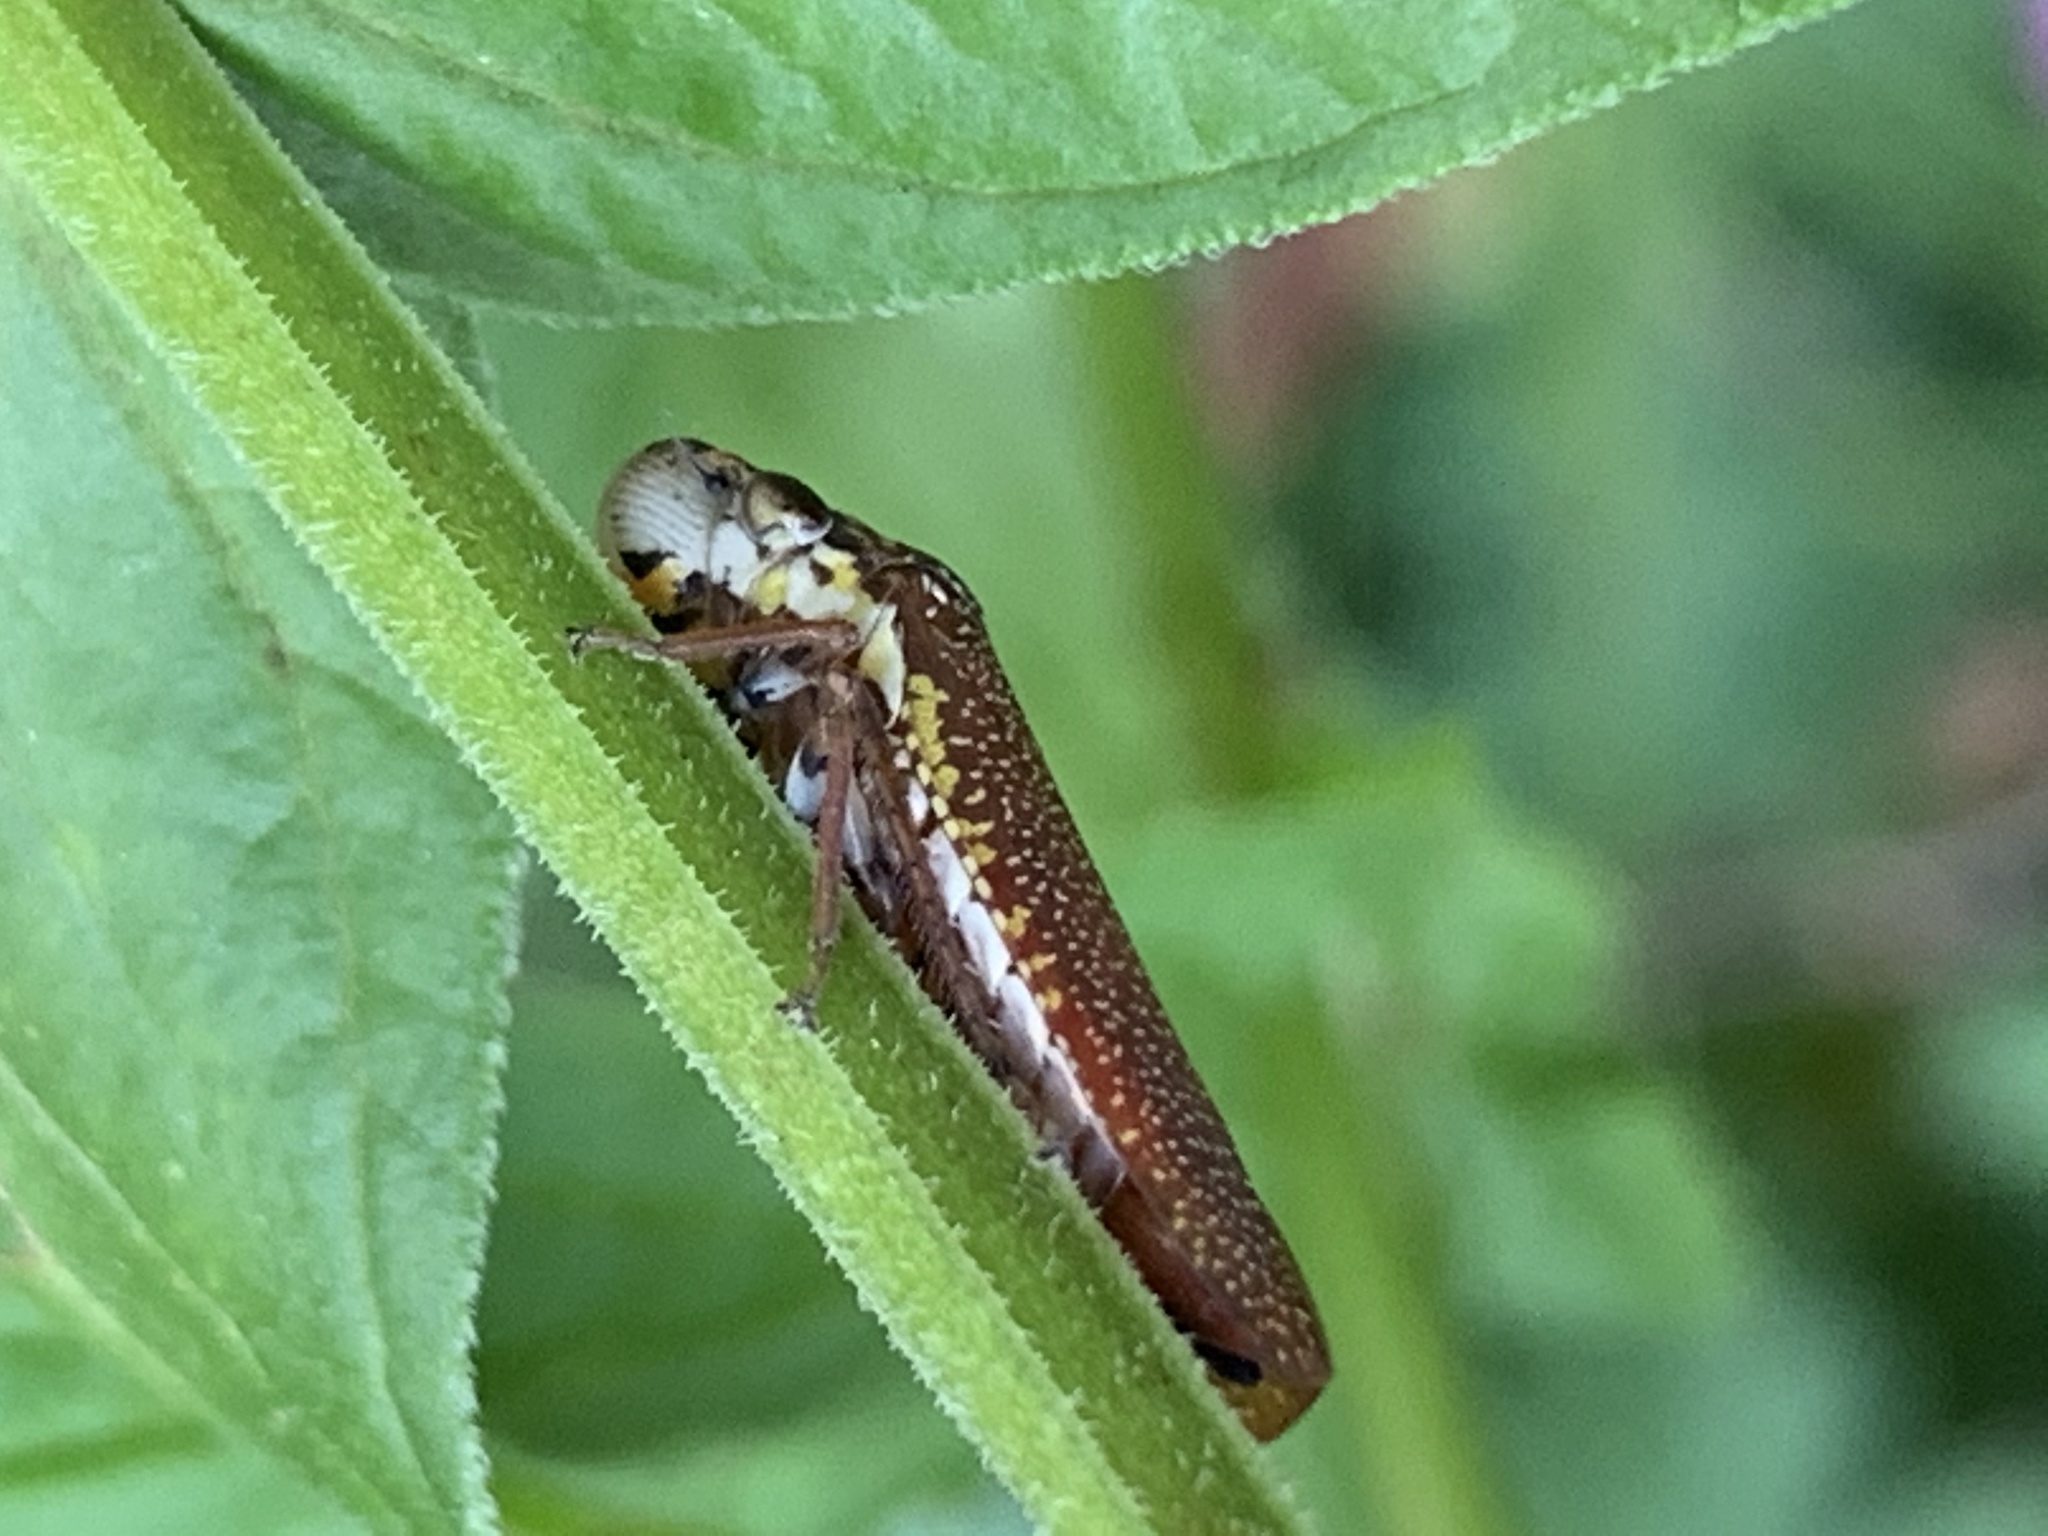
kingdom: Animalia
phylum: Arthropoda
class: Insecta
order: Hemiptera
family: Cicadellidae
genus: Paraulacizes
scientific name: Paraulacizes irrorata
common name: Speckled sharpshooter
